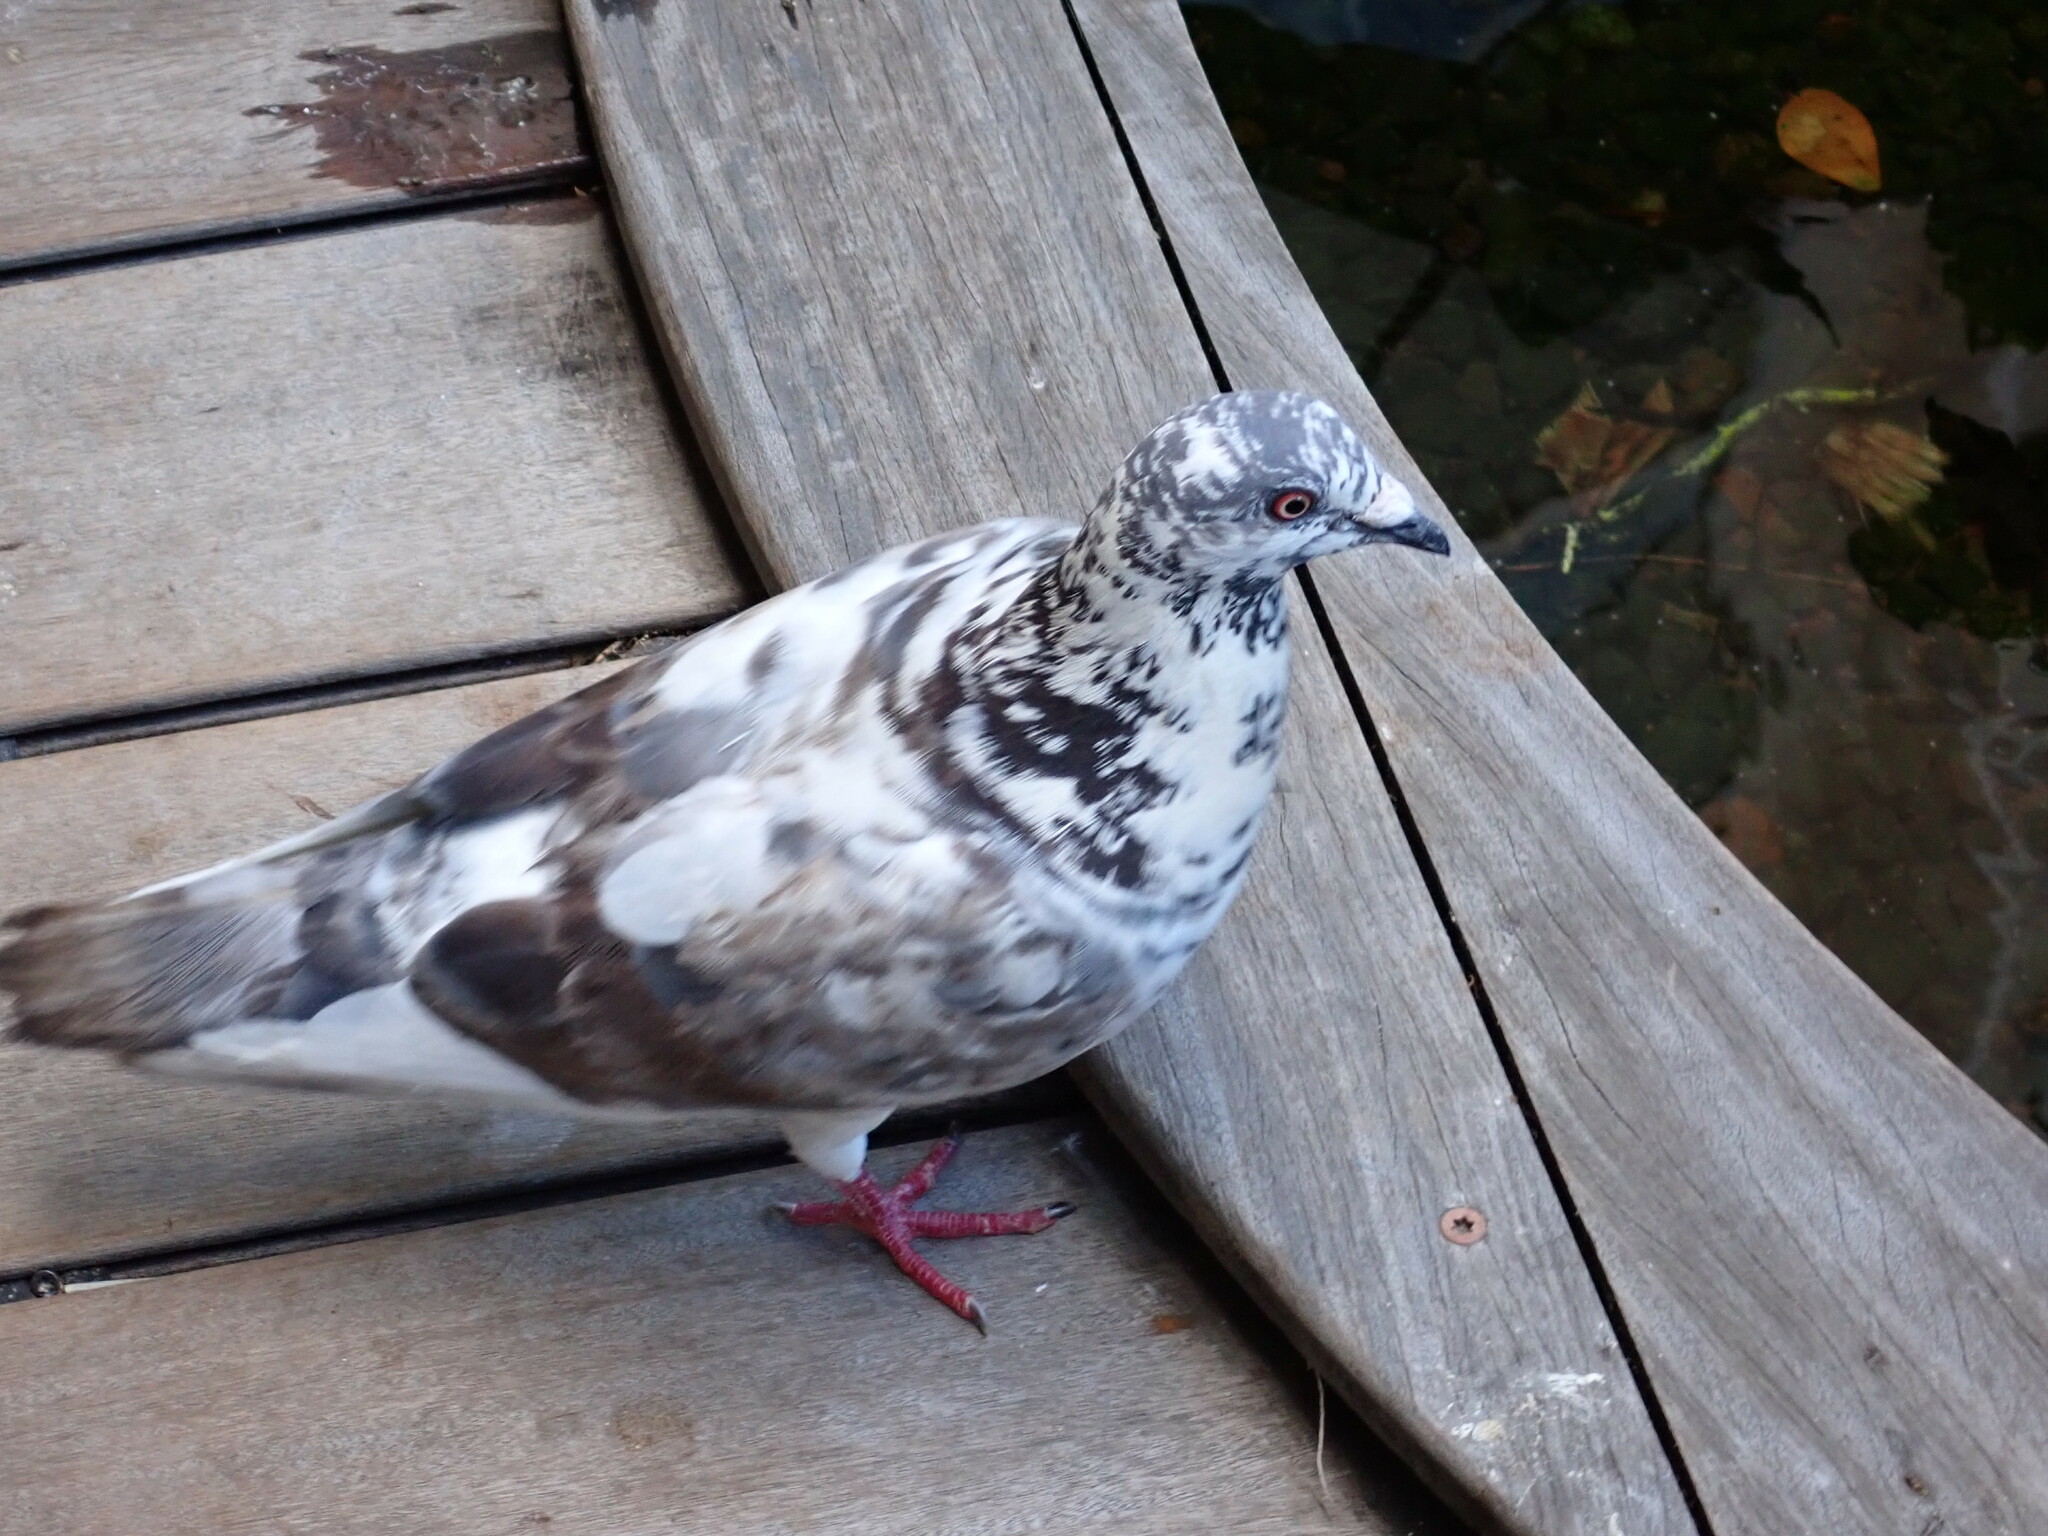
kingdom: Animalia
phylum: Chordata
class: Aves
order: Columbiformes
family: Columbidae
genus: Columba
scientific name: Columba livia
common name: Rock pigeon
